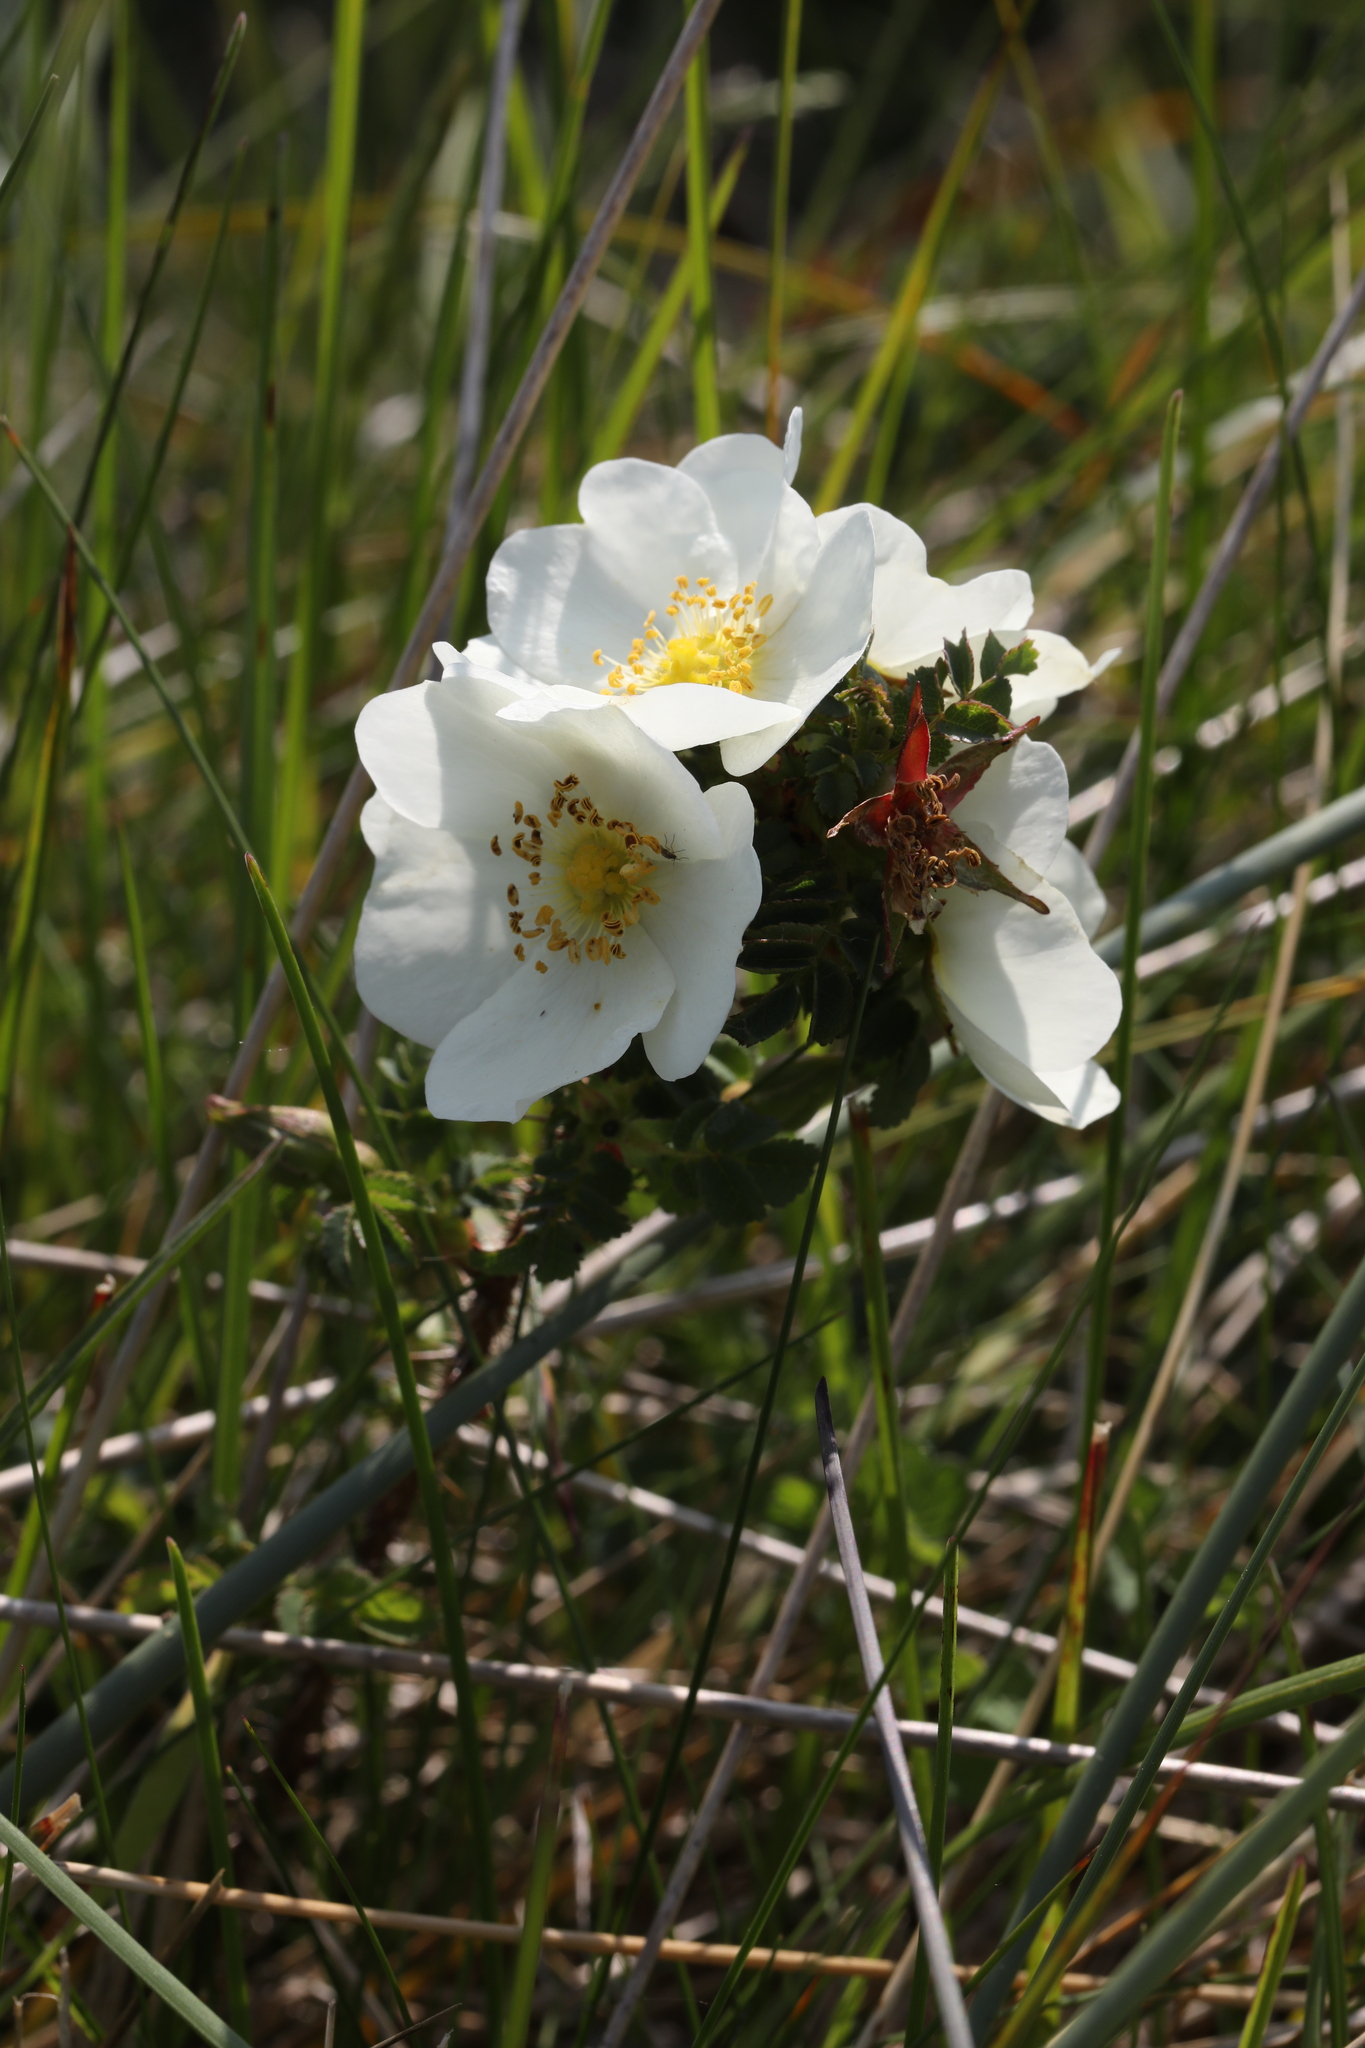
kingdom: Plantae
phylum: Tracheophyta
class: Magnoliopsida
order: Rosales
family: Rosaceae
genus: Rosa
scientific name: Rosa spinosissima
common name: Burnet rose
